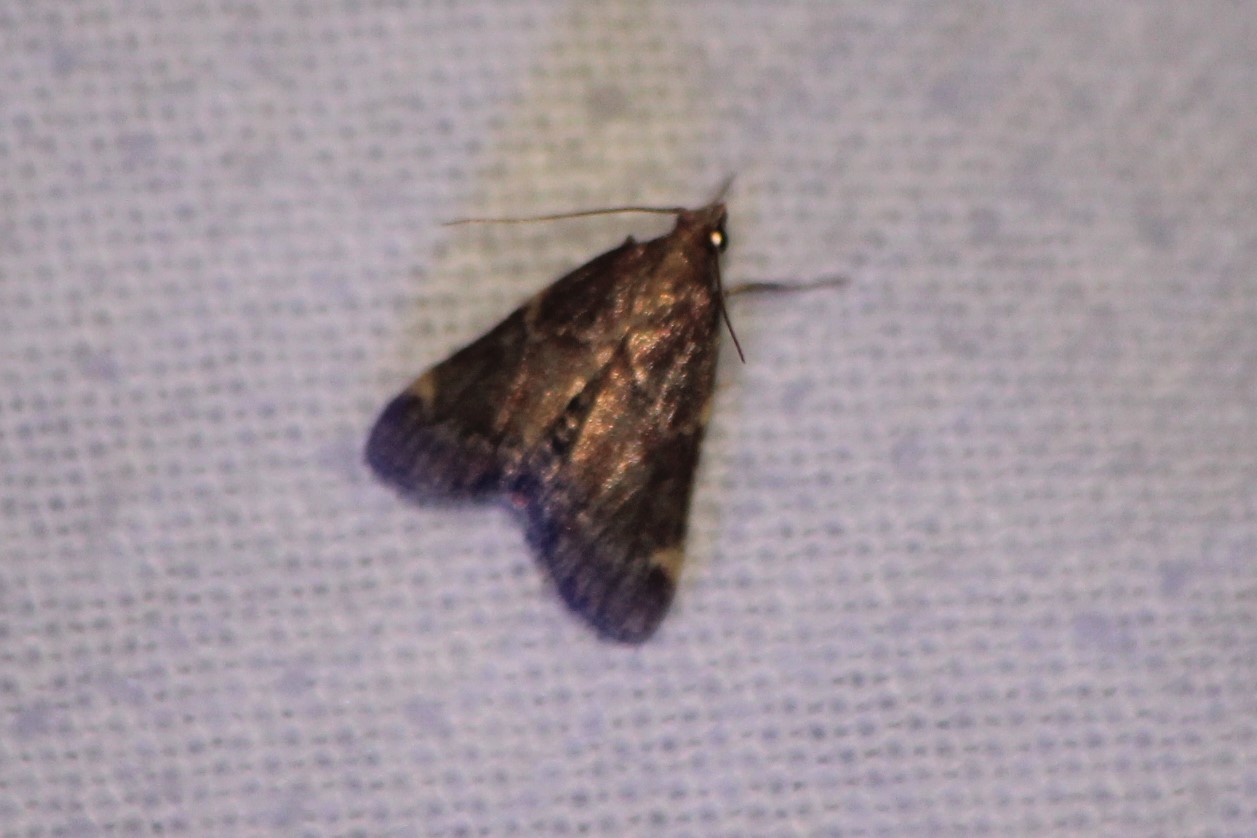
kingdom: Animalia
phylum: Arthropoda
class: Insecta
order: Lepidoptera
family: Pyralidae
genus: Hypsopygia
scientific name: Hypsopygia intermedialis
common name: Red-shawled moth
